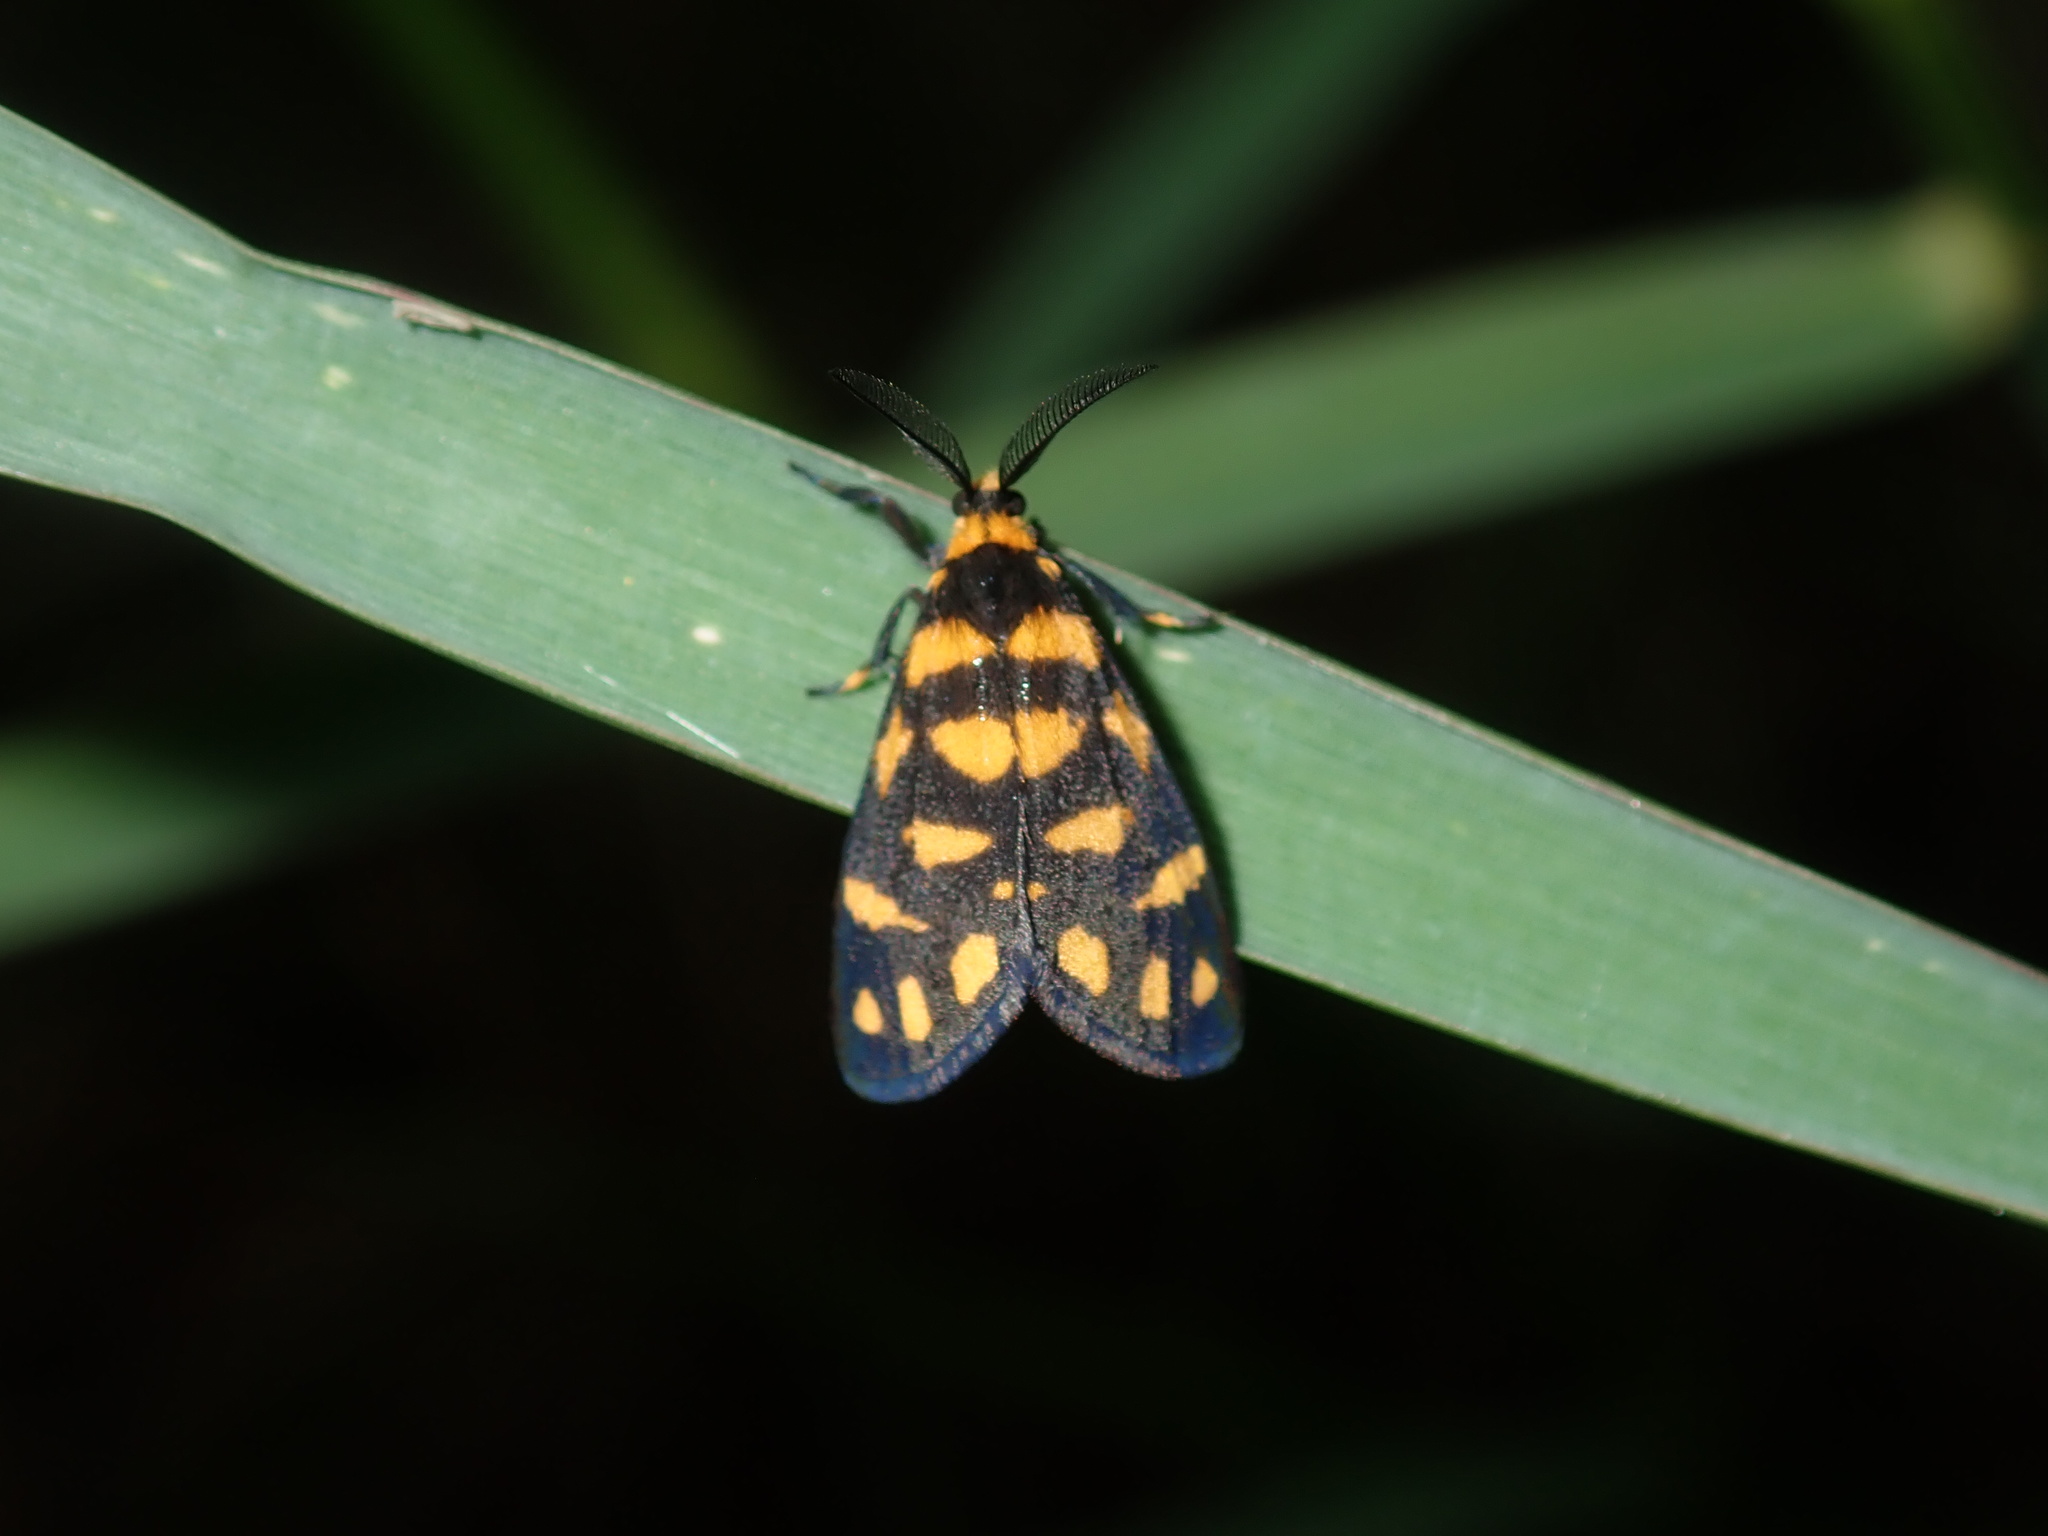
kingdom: Animalia
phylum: Arthropoda
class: Insecta
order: Lepidoptera
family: Erebidae
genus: Asura
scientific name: Asura lydia
